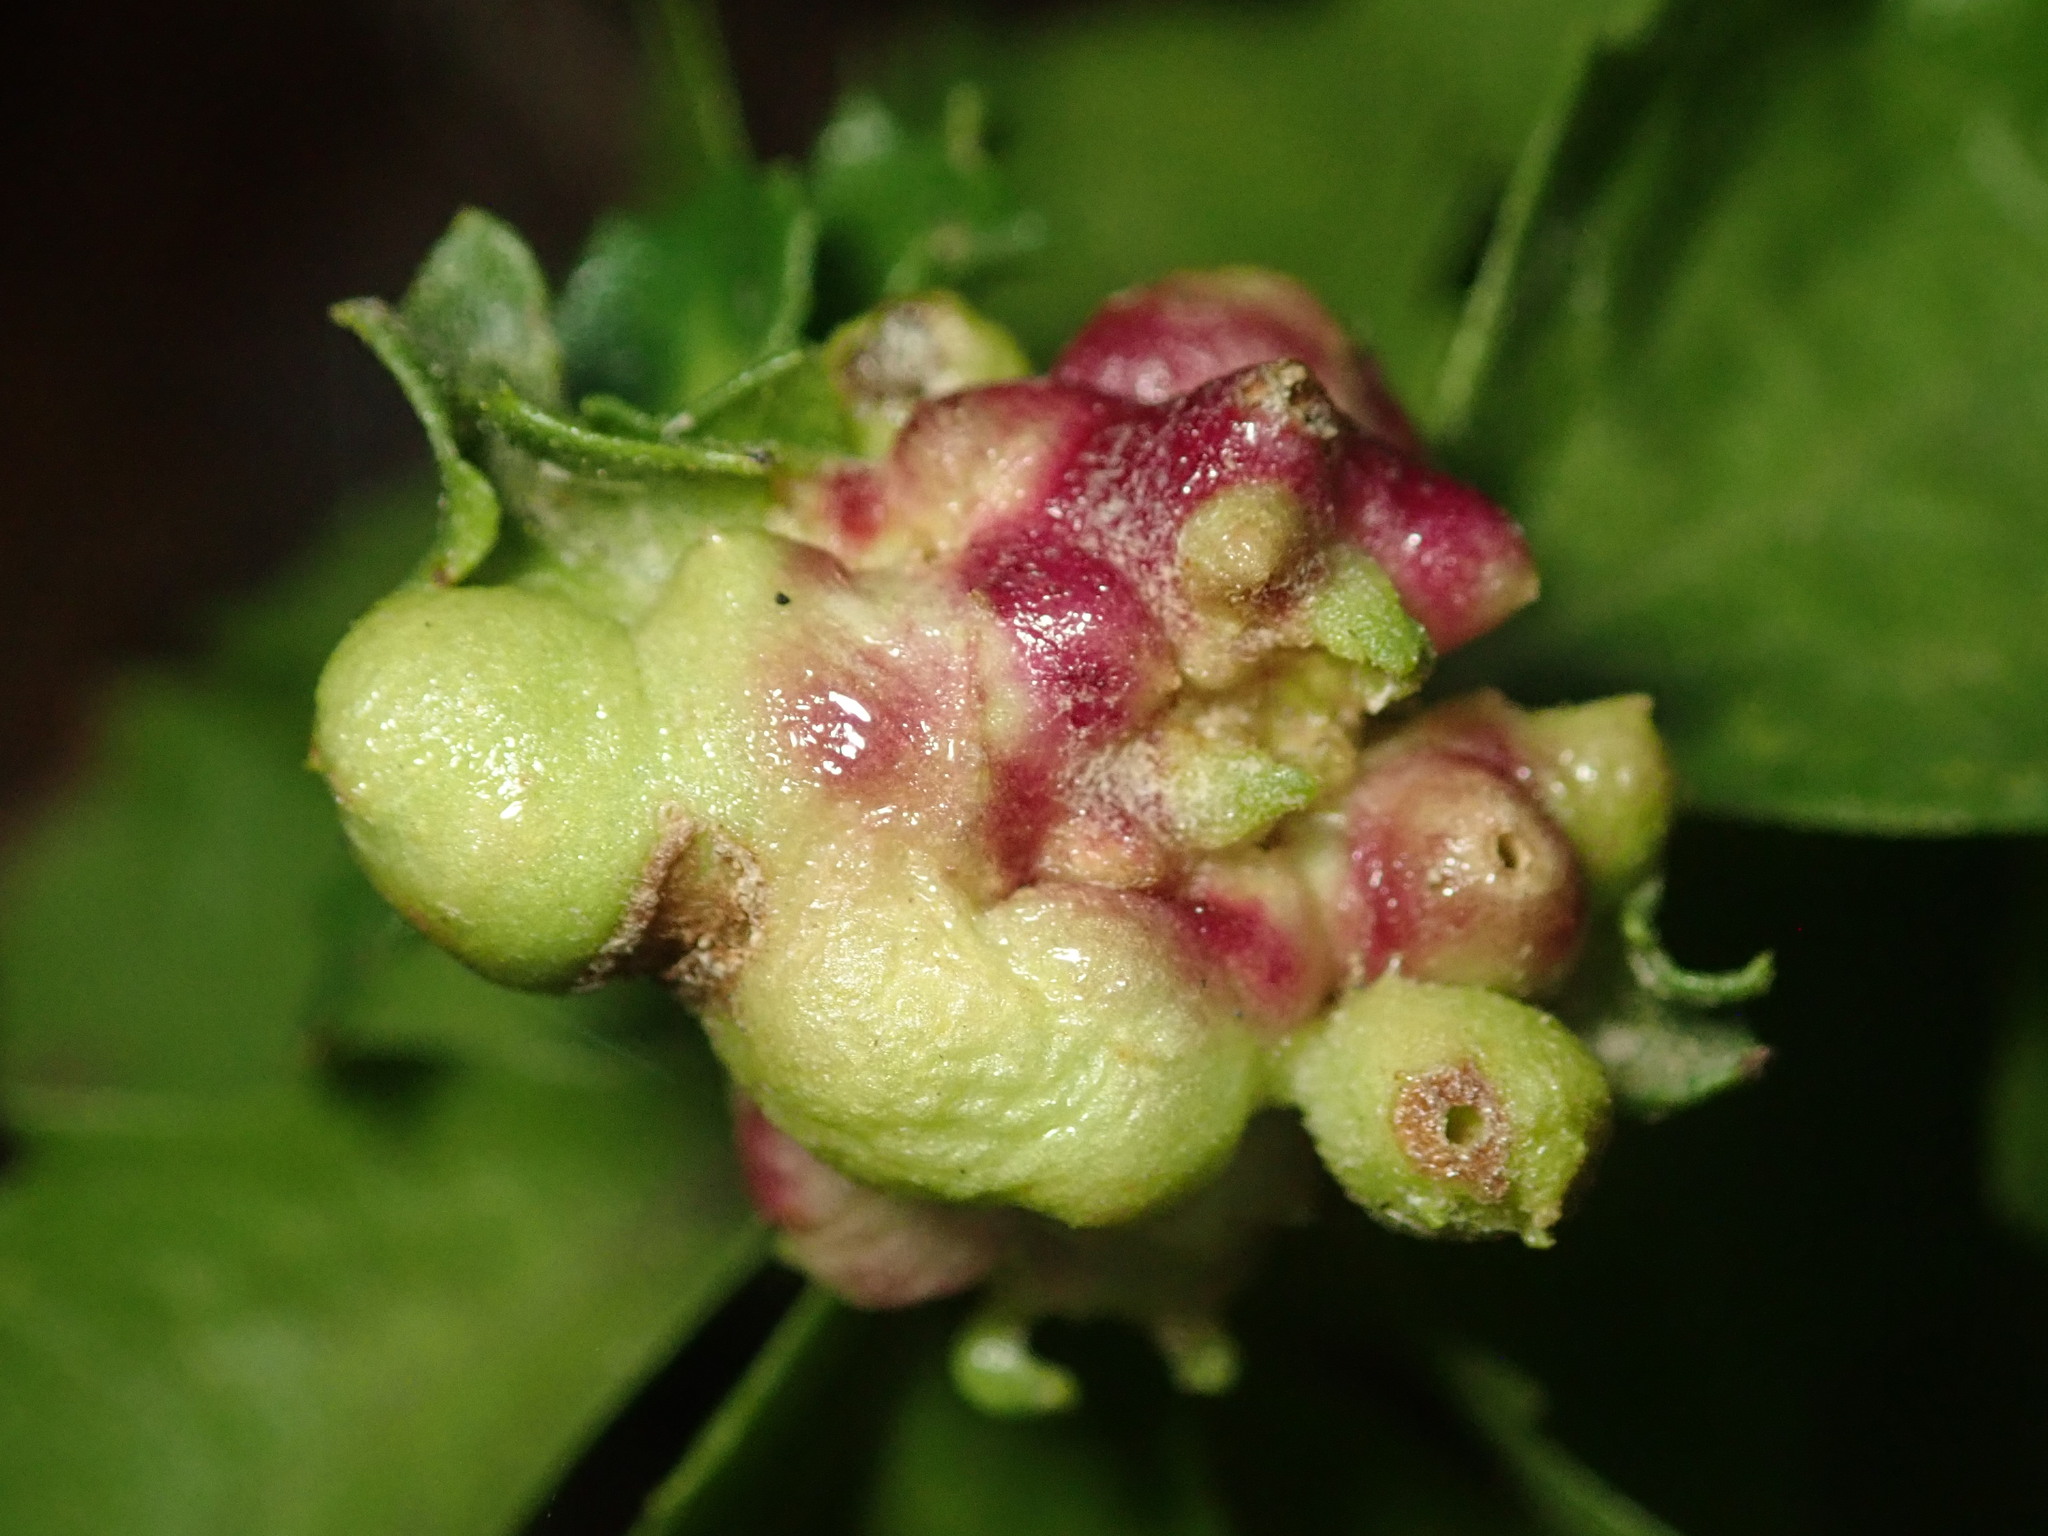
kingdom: Animalia
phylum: Arthropoda
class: Insecta
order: Diptera
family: Cecidomyiidae
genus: Rhopalomyia
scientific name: Rhopalomyia californica
